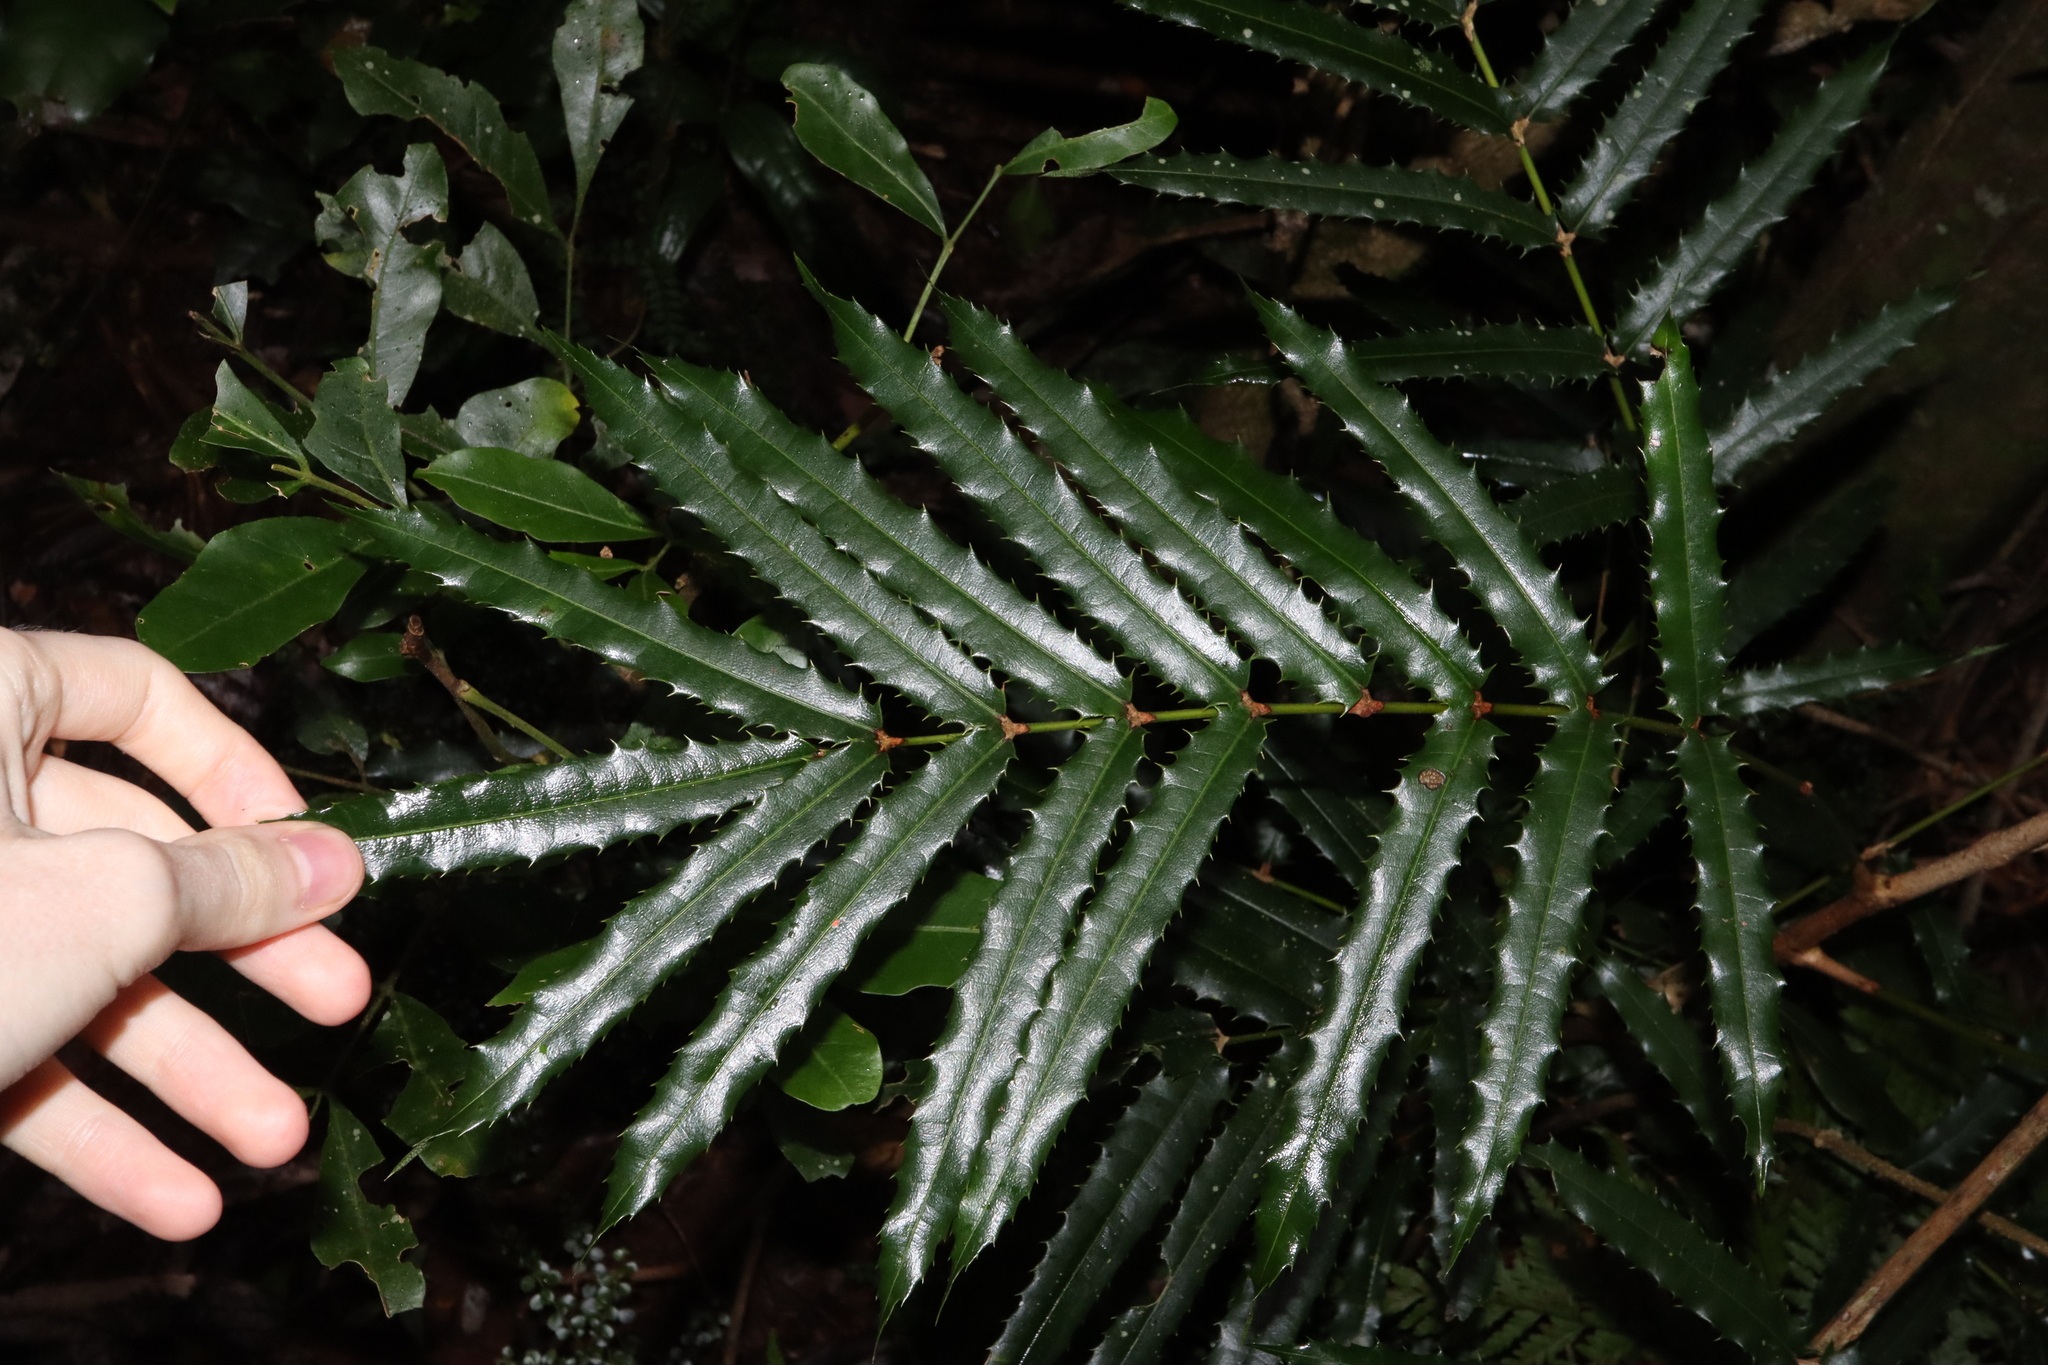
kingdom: Plantae
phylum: Tracheophyta
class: Magnoliopsida
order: Brassicales
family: Akaniaceae
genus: Akania
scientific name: Akania bidwillii
